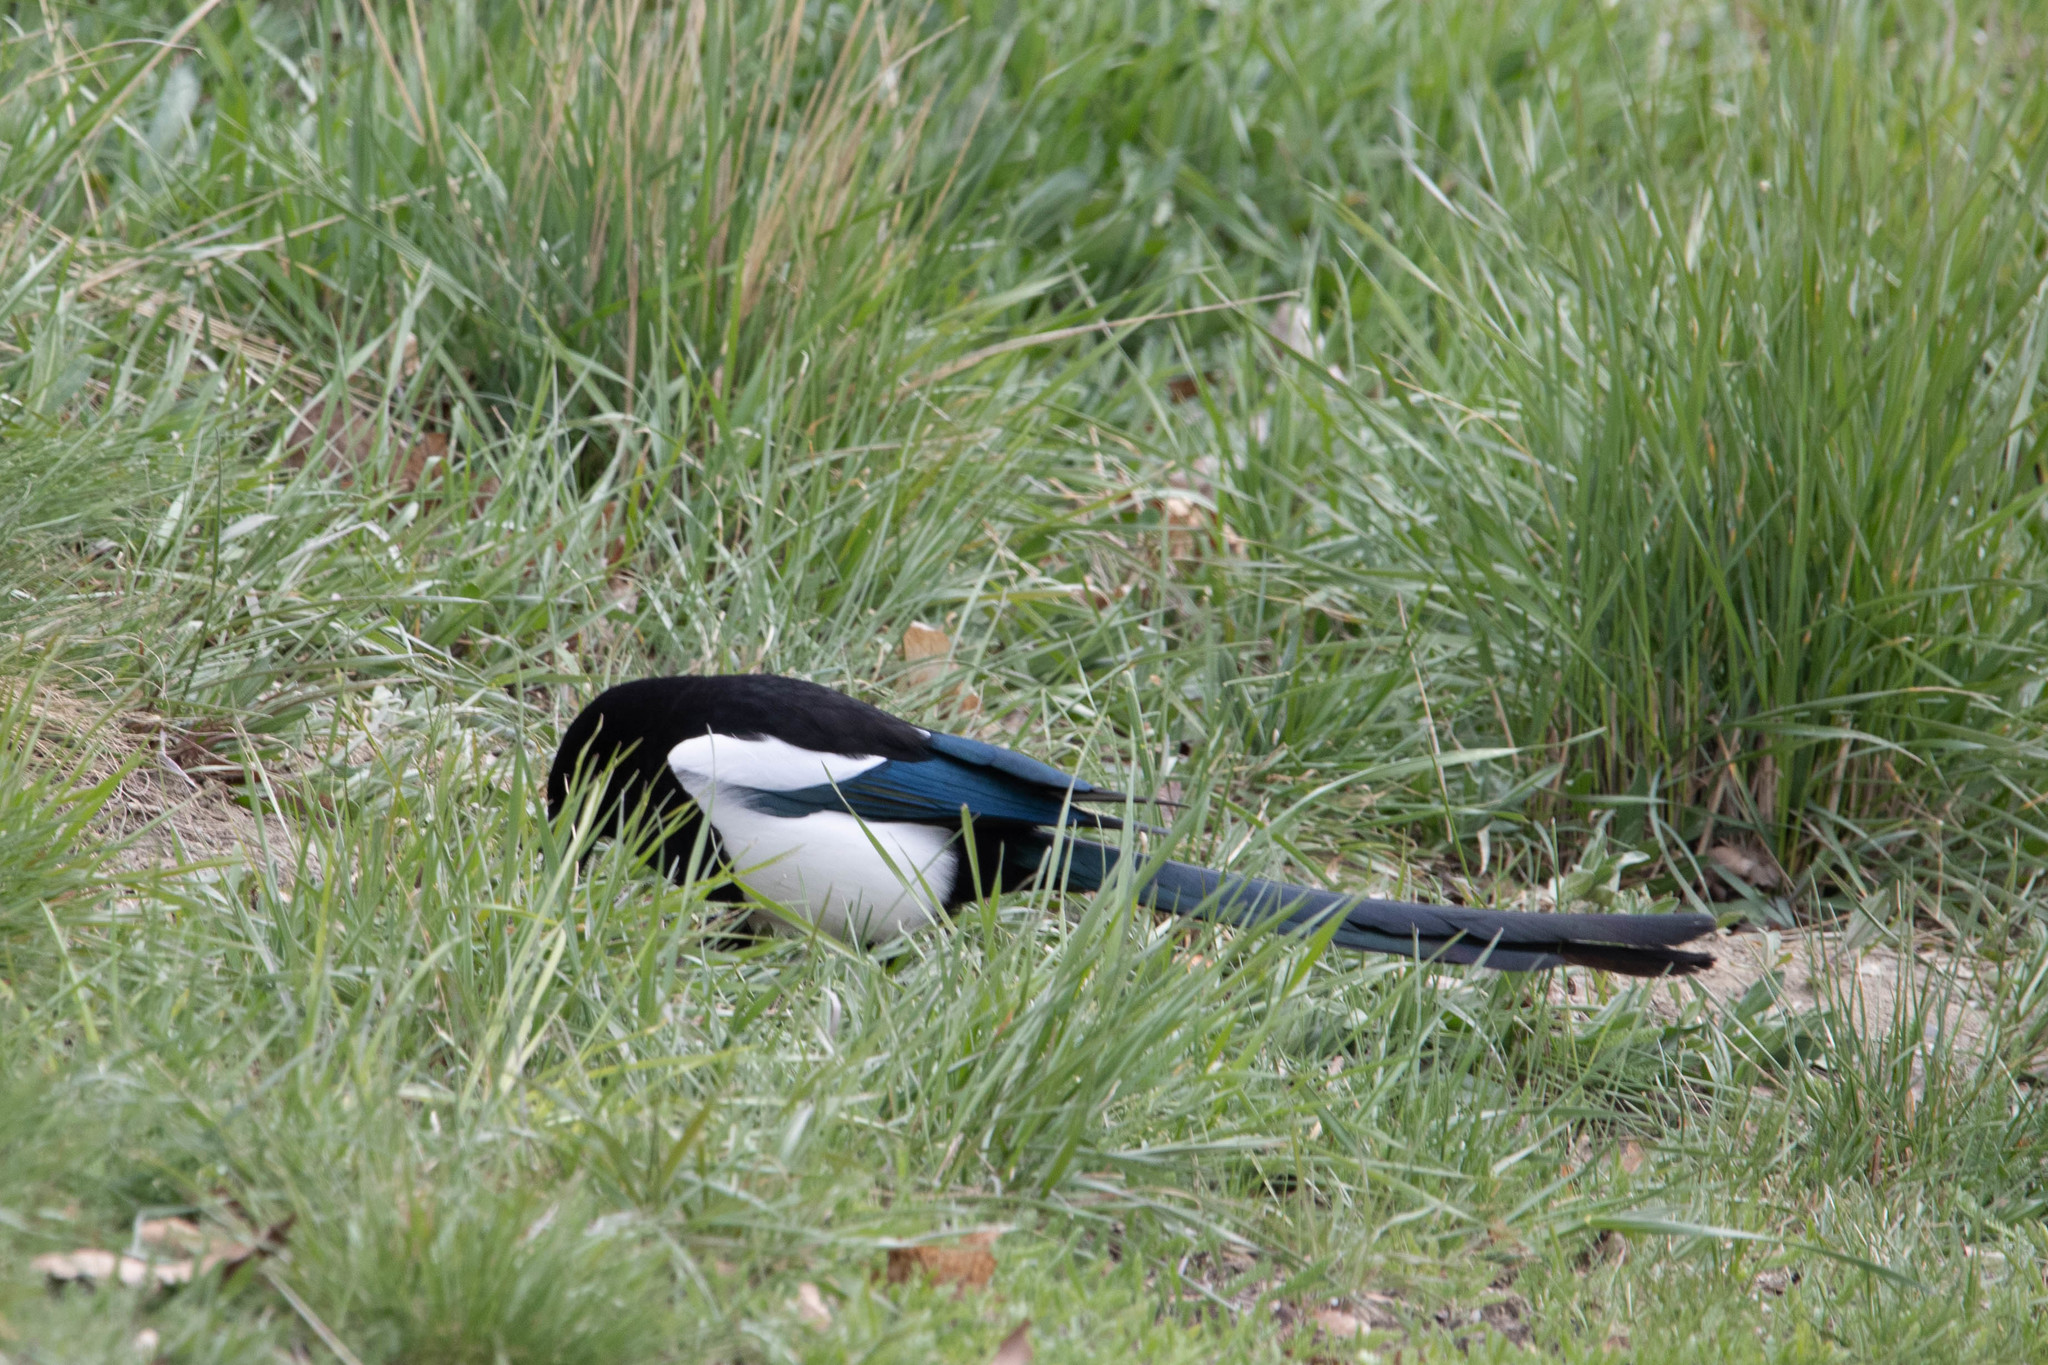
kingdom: Animalia
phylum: Chordata
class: Aves
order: Passeriformes
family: Corvidae
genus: Pica
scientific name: Pica hudsonia
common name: Black-billed magpie
